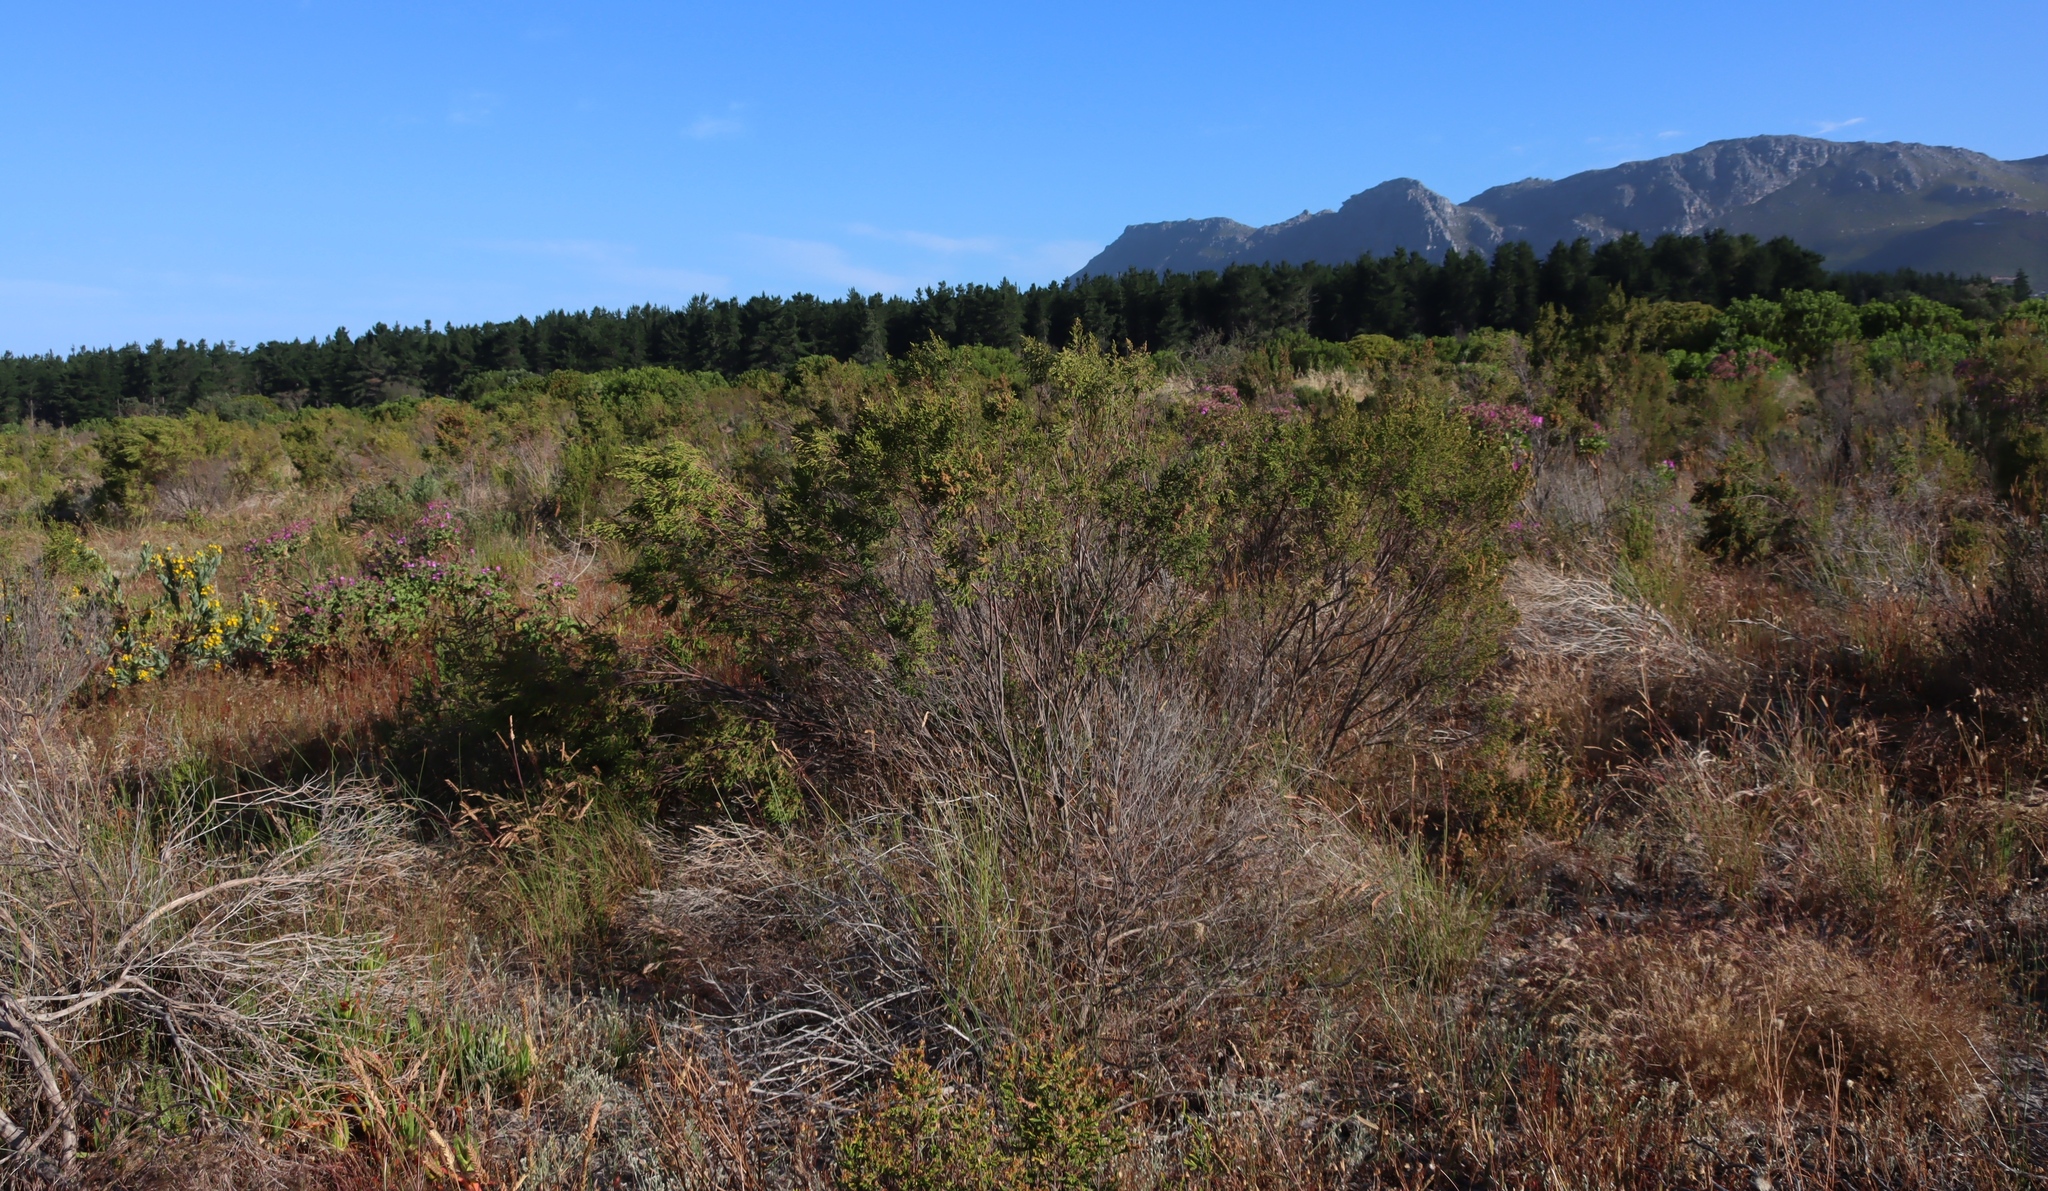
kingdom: Plantae
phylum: Tracheophyta
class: Magnoliopsida
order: Malvales
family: Thymelaeaceae
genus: Passerina
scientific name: Passerina corymbosa
